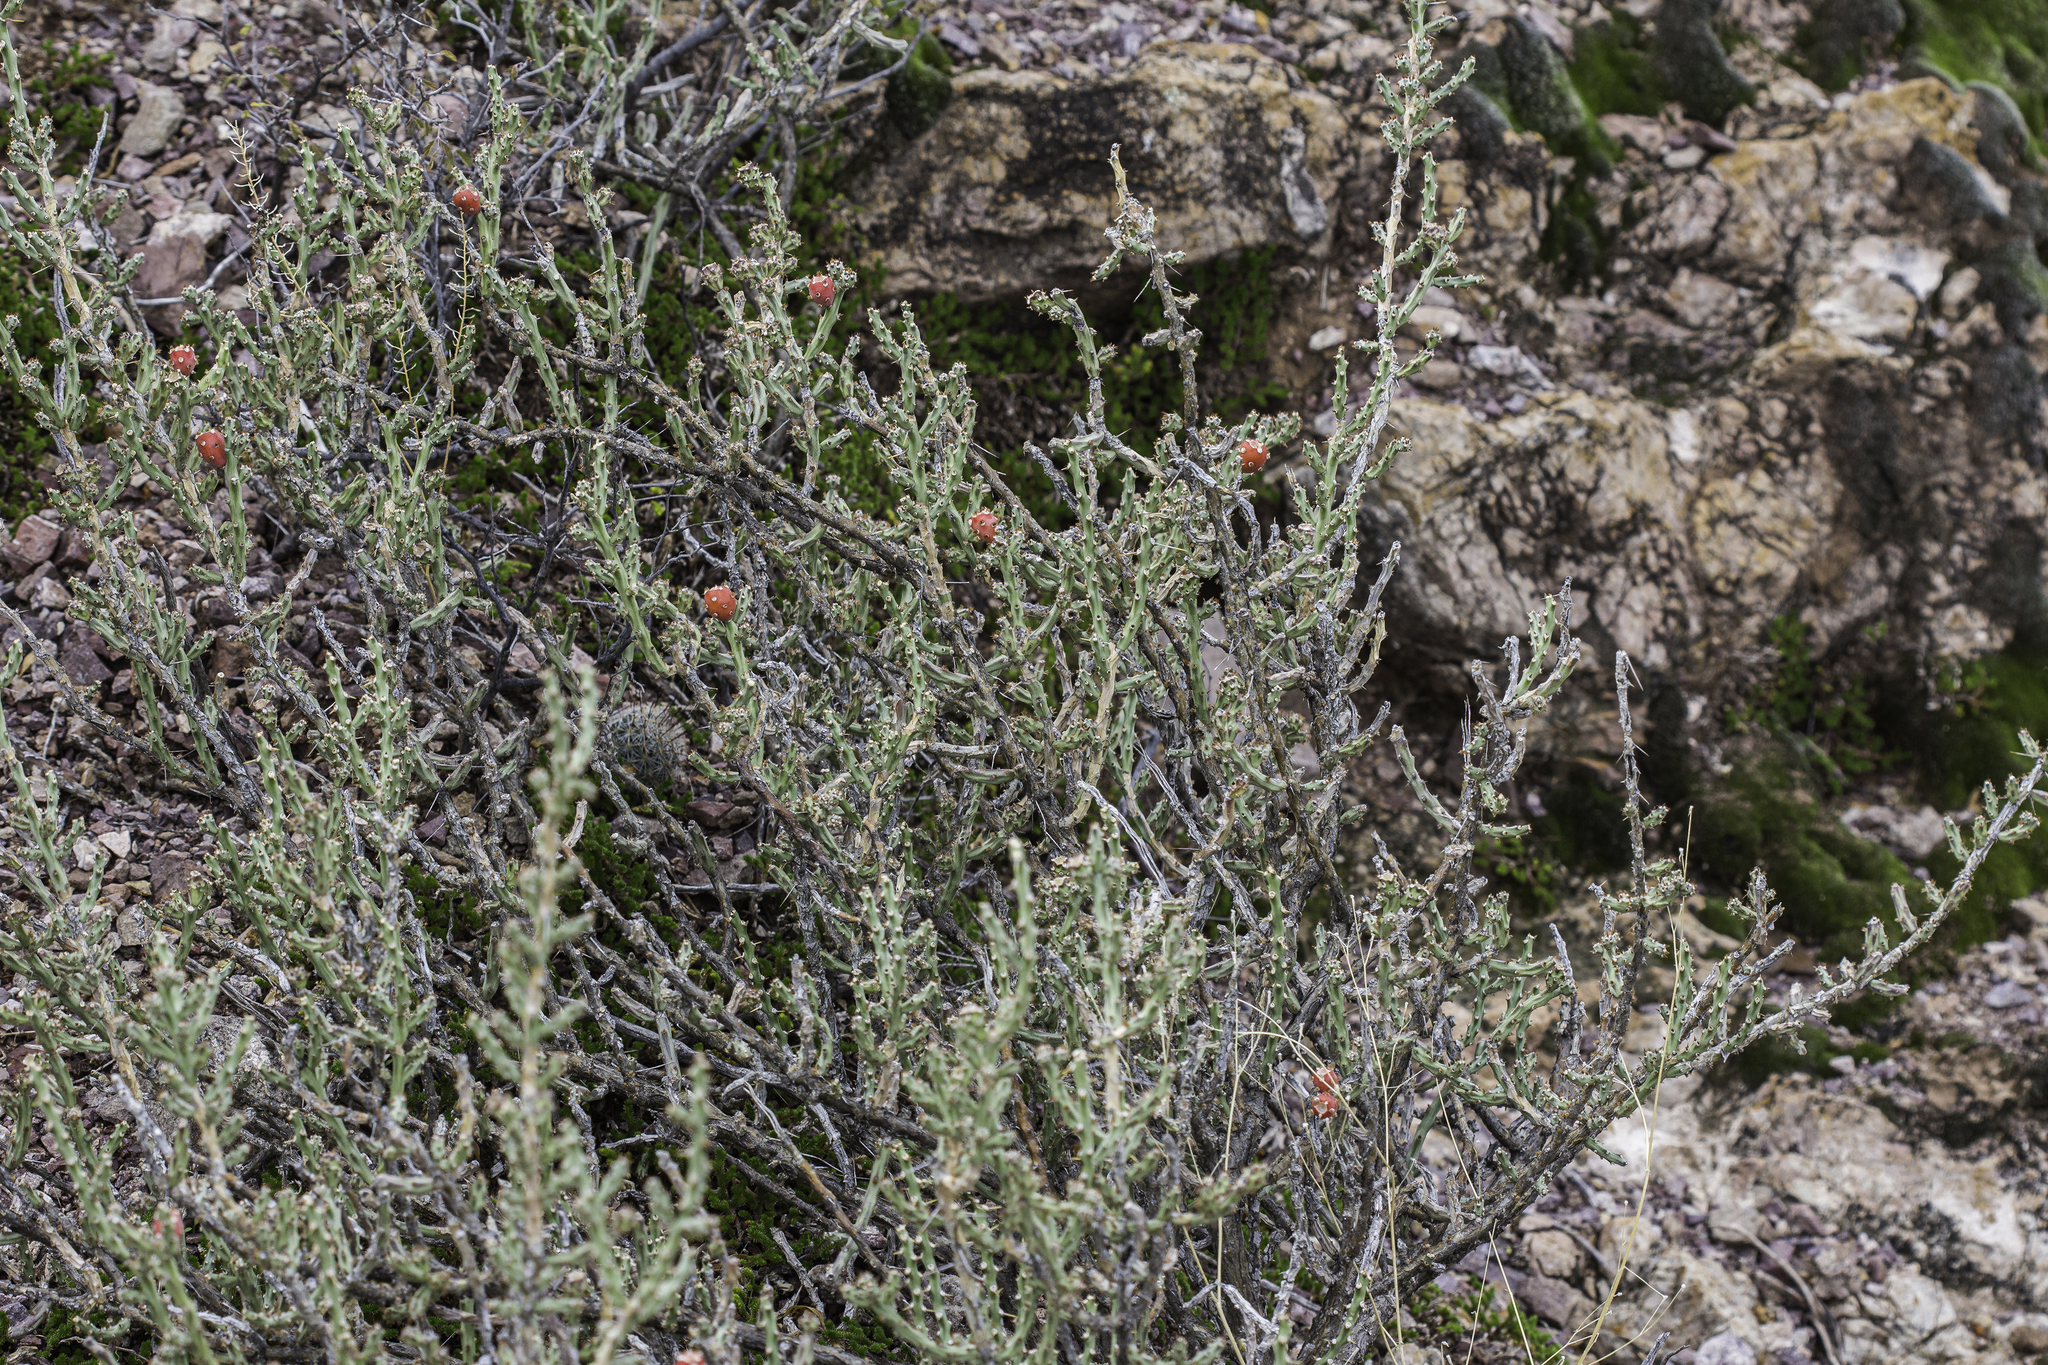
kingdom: Plantae
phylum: Tracheophyta
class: Magnoliopsida
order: Caryophyllales
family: Cactaceae
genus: Cylindropuntia
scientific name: Cylindropuntia leptocaulis
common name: Christmas cactus
